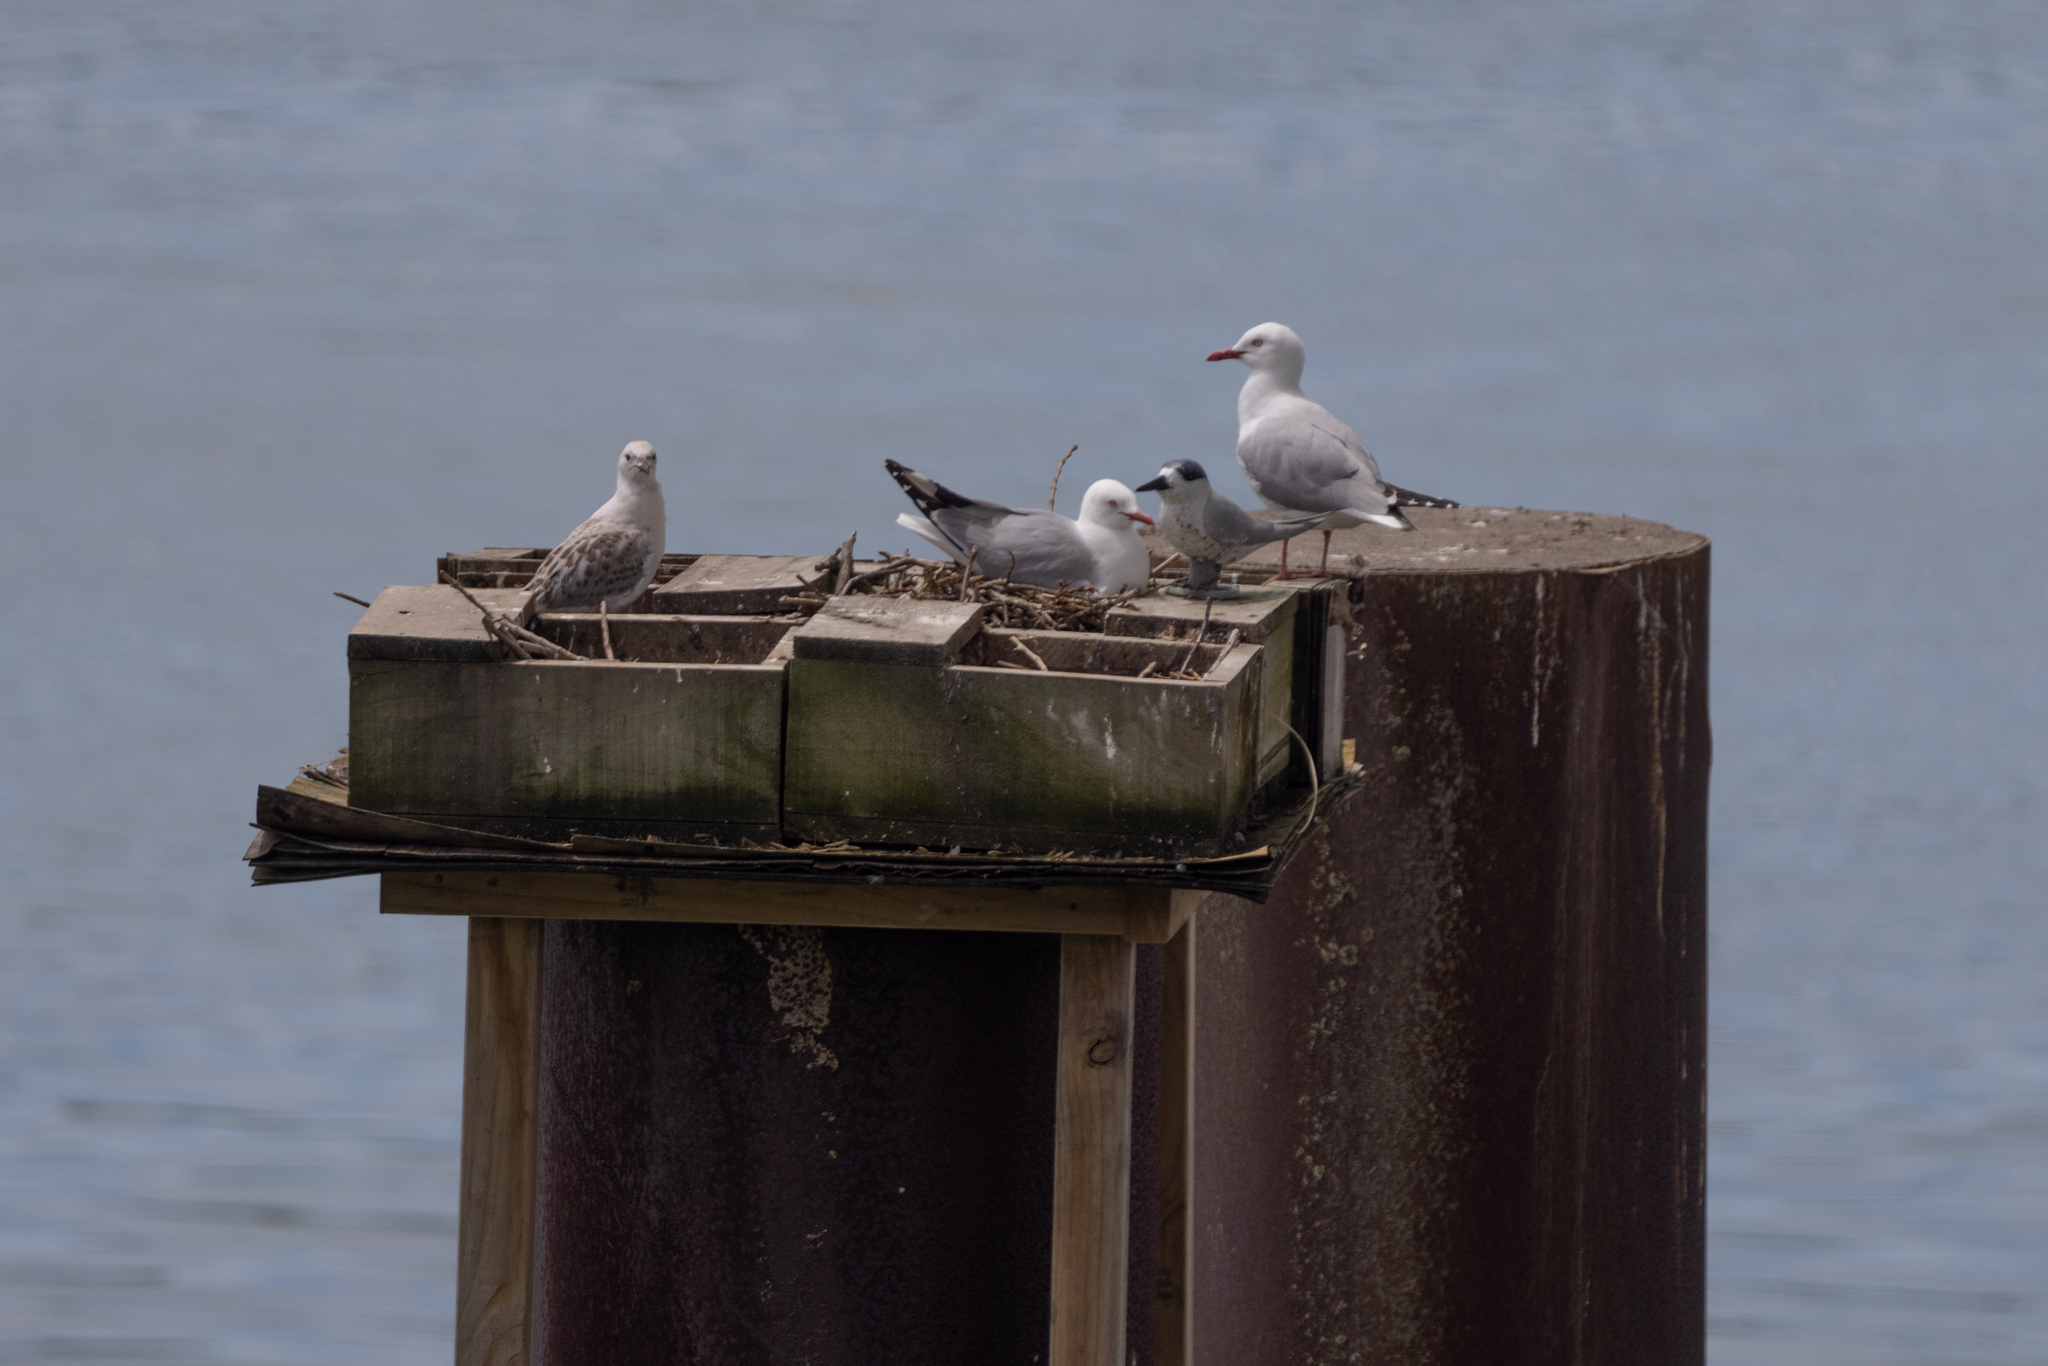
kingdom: Animalia
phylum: Chordata
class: Aves
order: Charadriiformes
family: Laridae
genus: Chroicocephalus
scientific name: Chroicocephalus novaehollandiae
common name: Silver gull
